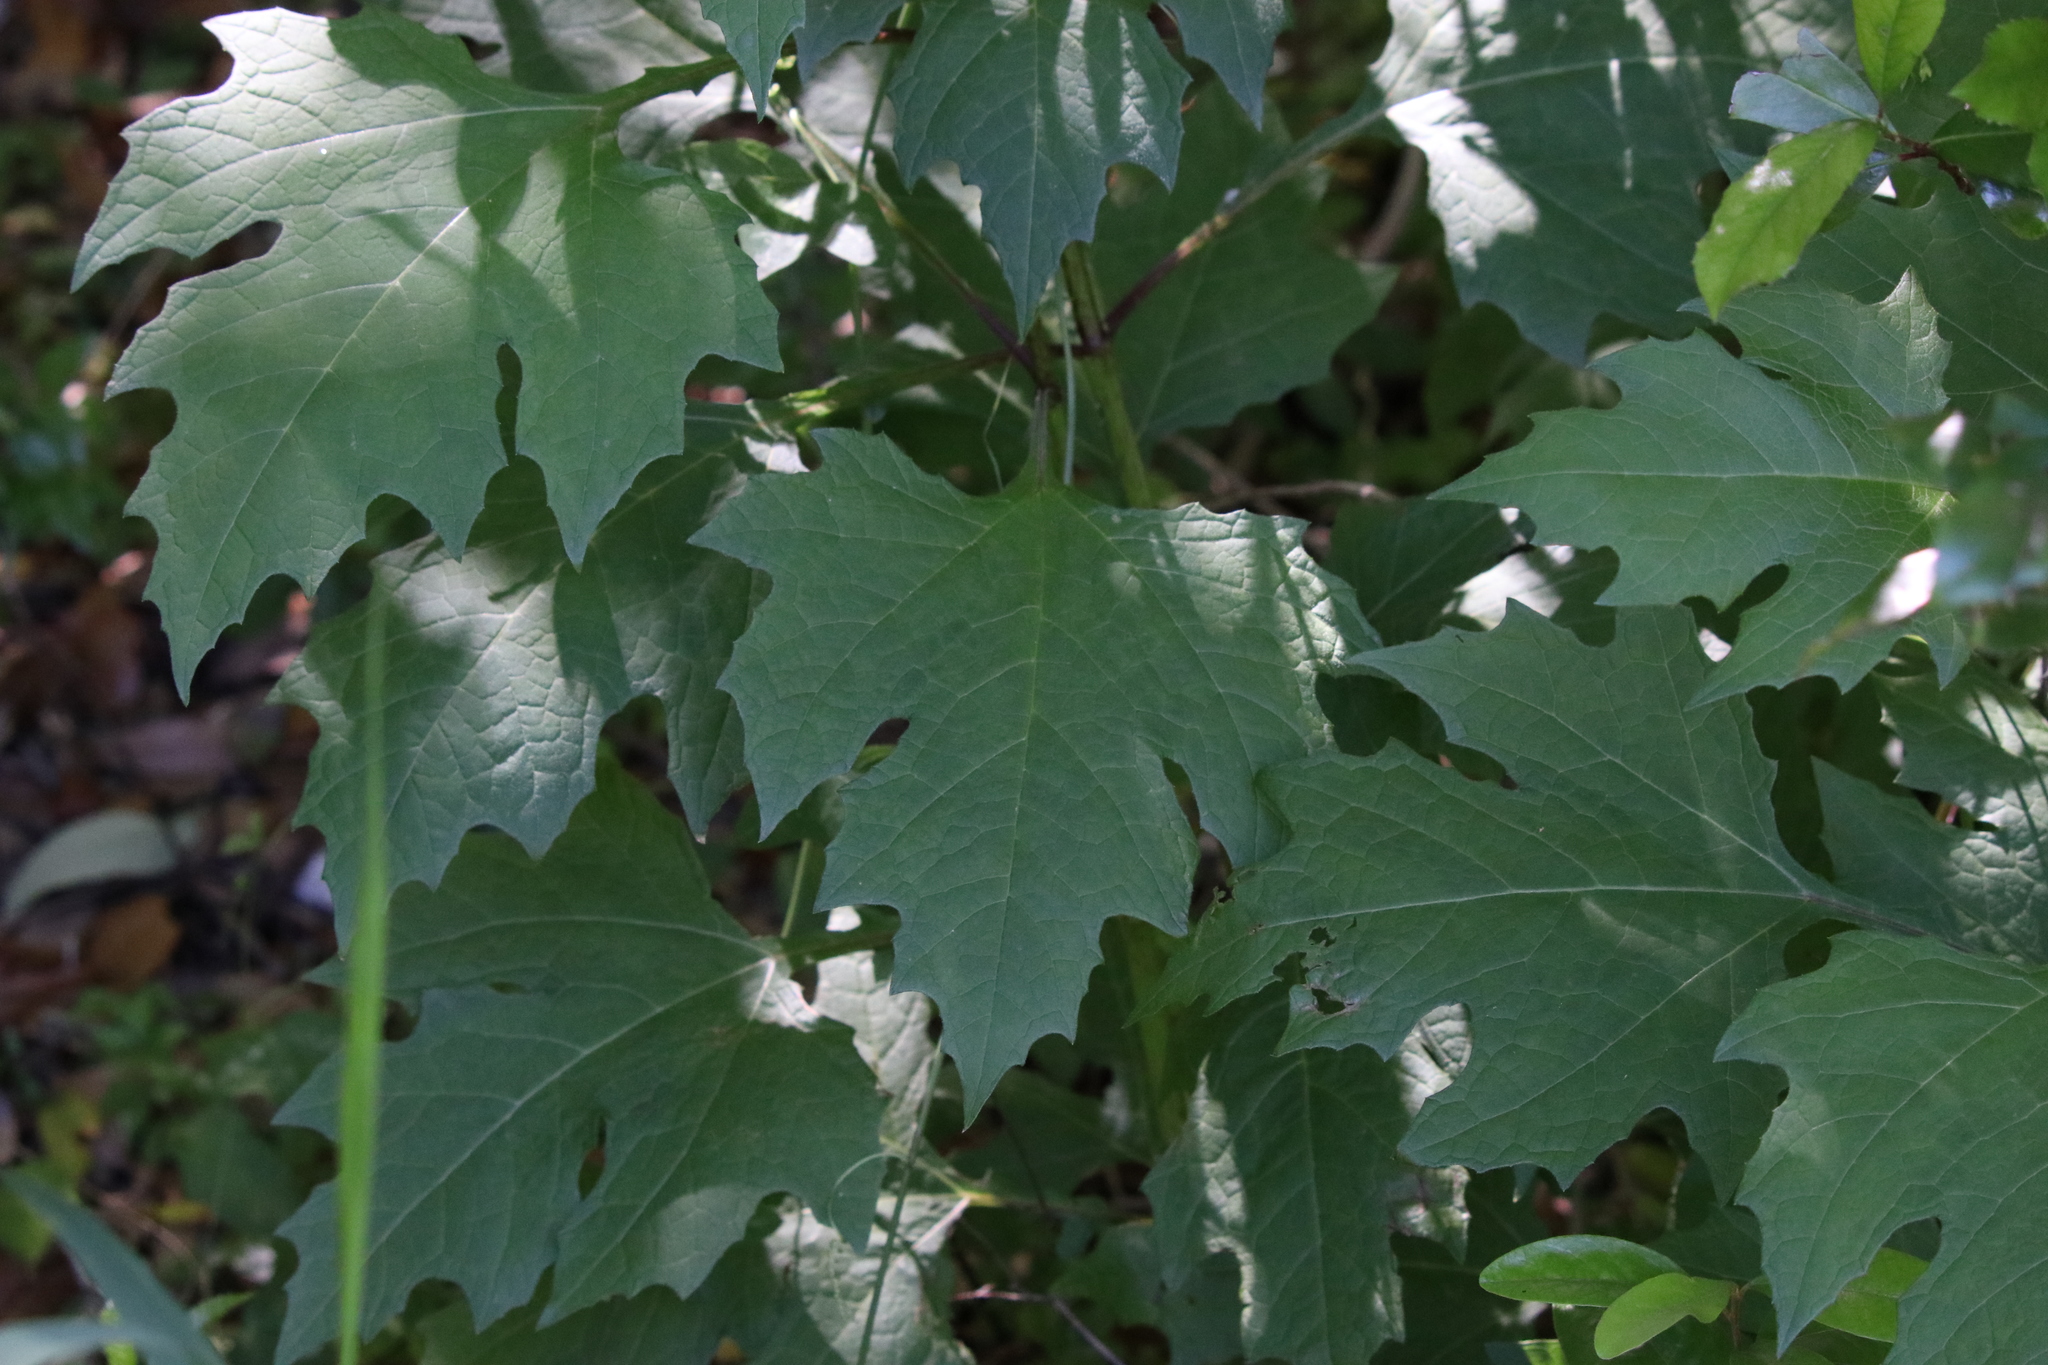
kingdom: Plantae
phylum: Tracheophyta
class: Magnoliopsida
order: Asterales
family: Asteraceae
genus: Smallanthus
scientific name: Smallanthus uvedalia
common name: Bear's-foot
